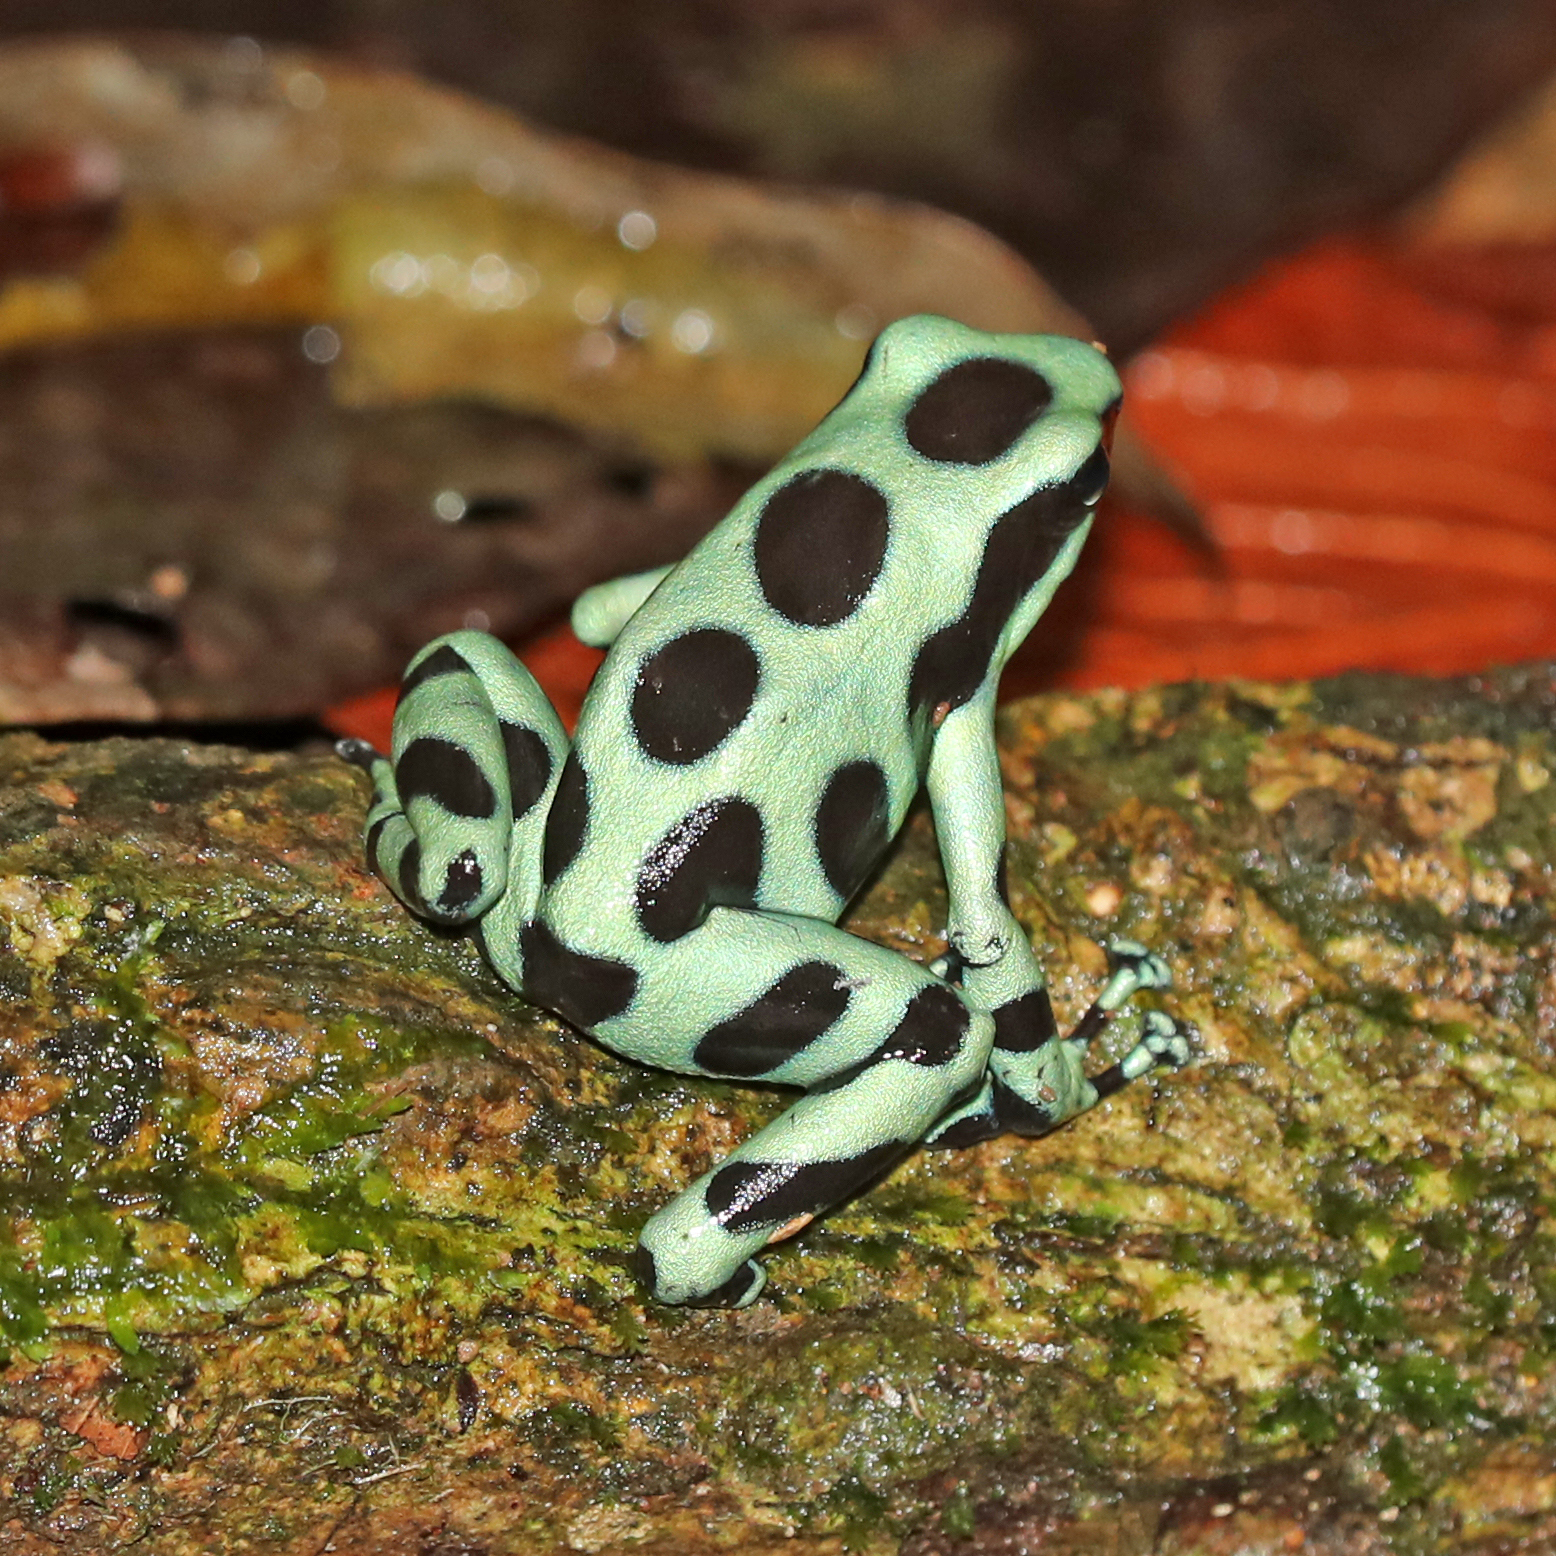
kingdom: Animalia
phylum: Chordata
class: Amphibia
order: Anura
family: Dendrobatidae
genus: Dendrobates
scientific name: Dendrobates auratus
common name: Green and black poison dart frog
